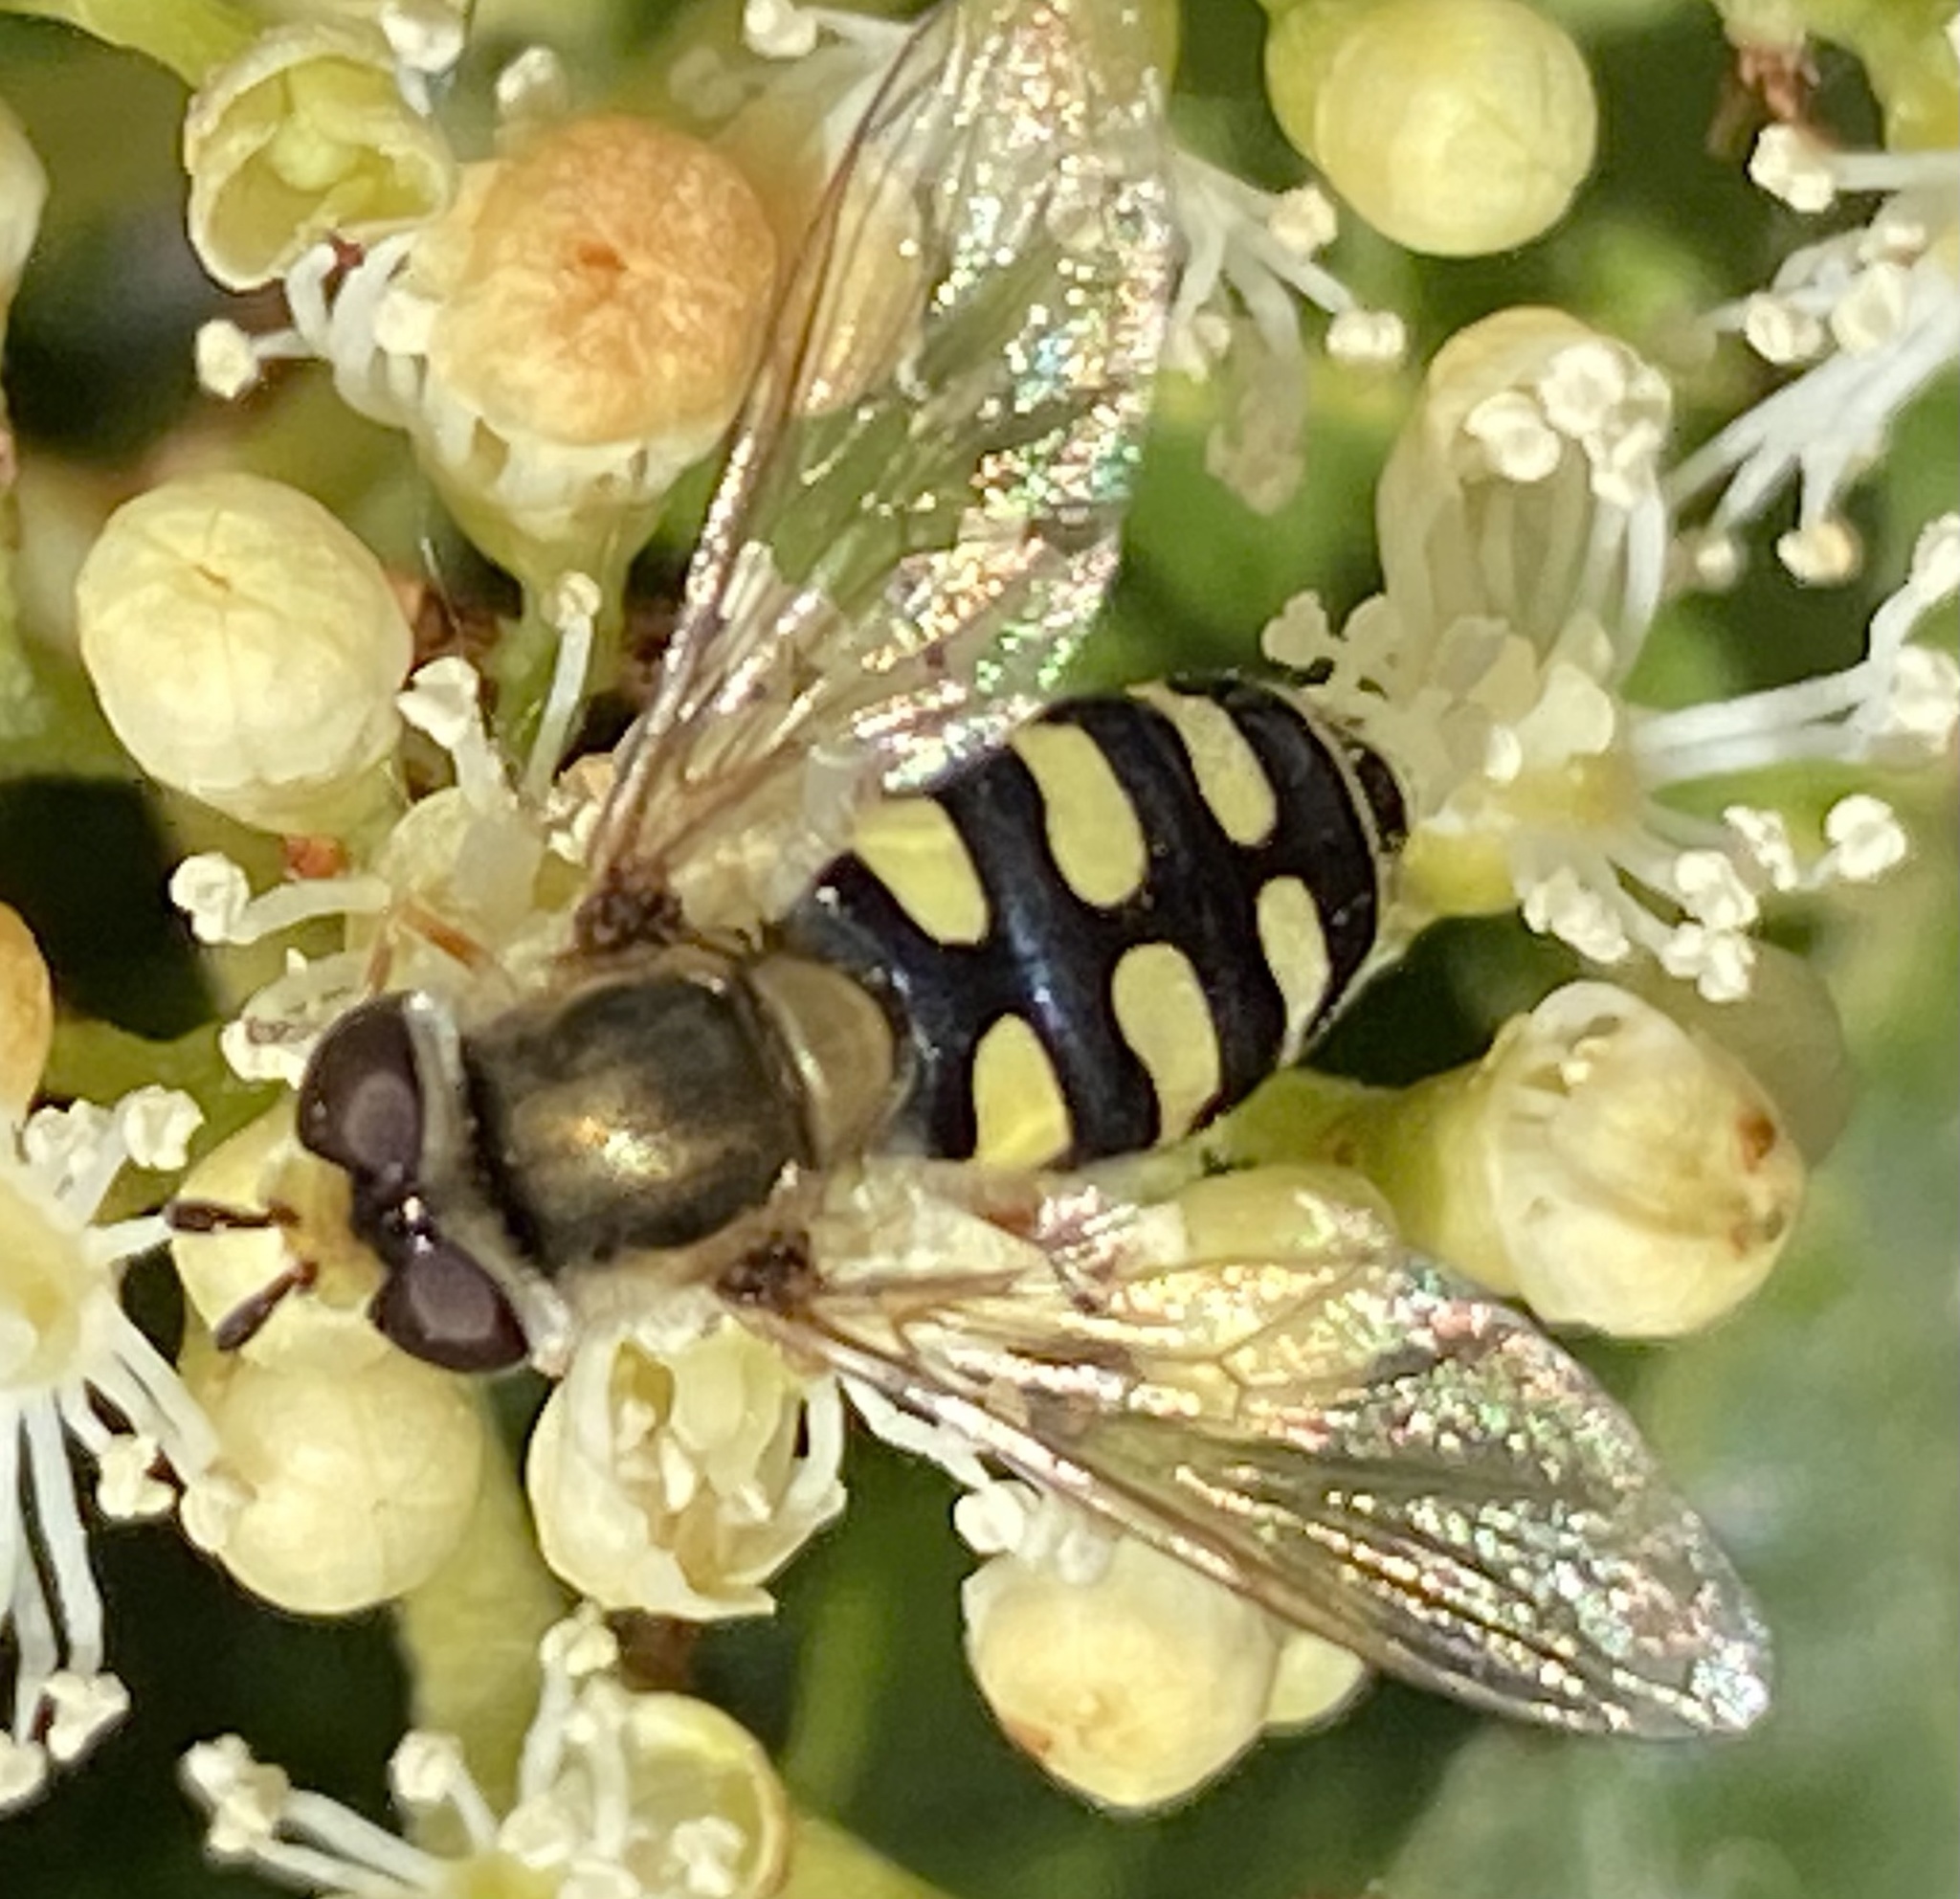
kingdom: Animalia
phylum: Arthropoda
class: Insecta
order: Diptera
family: Syrphidae
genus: Eupeodes
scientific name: Eupeodes corollae
